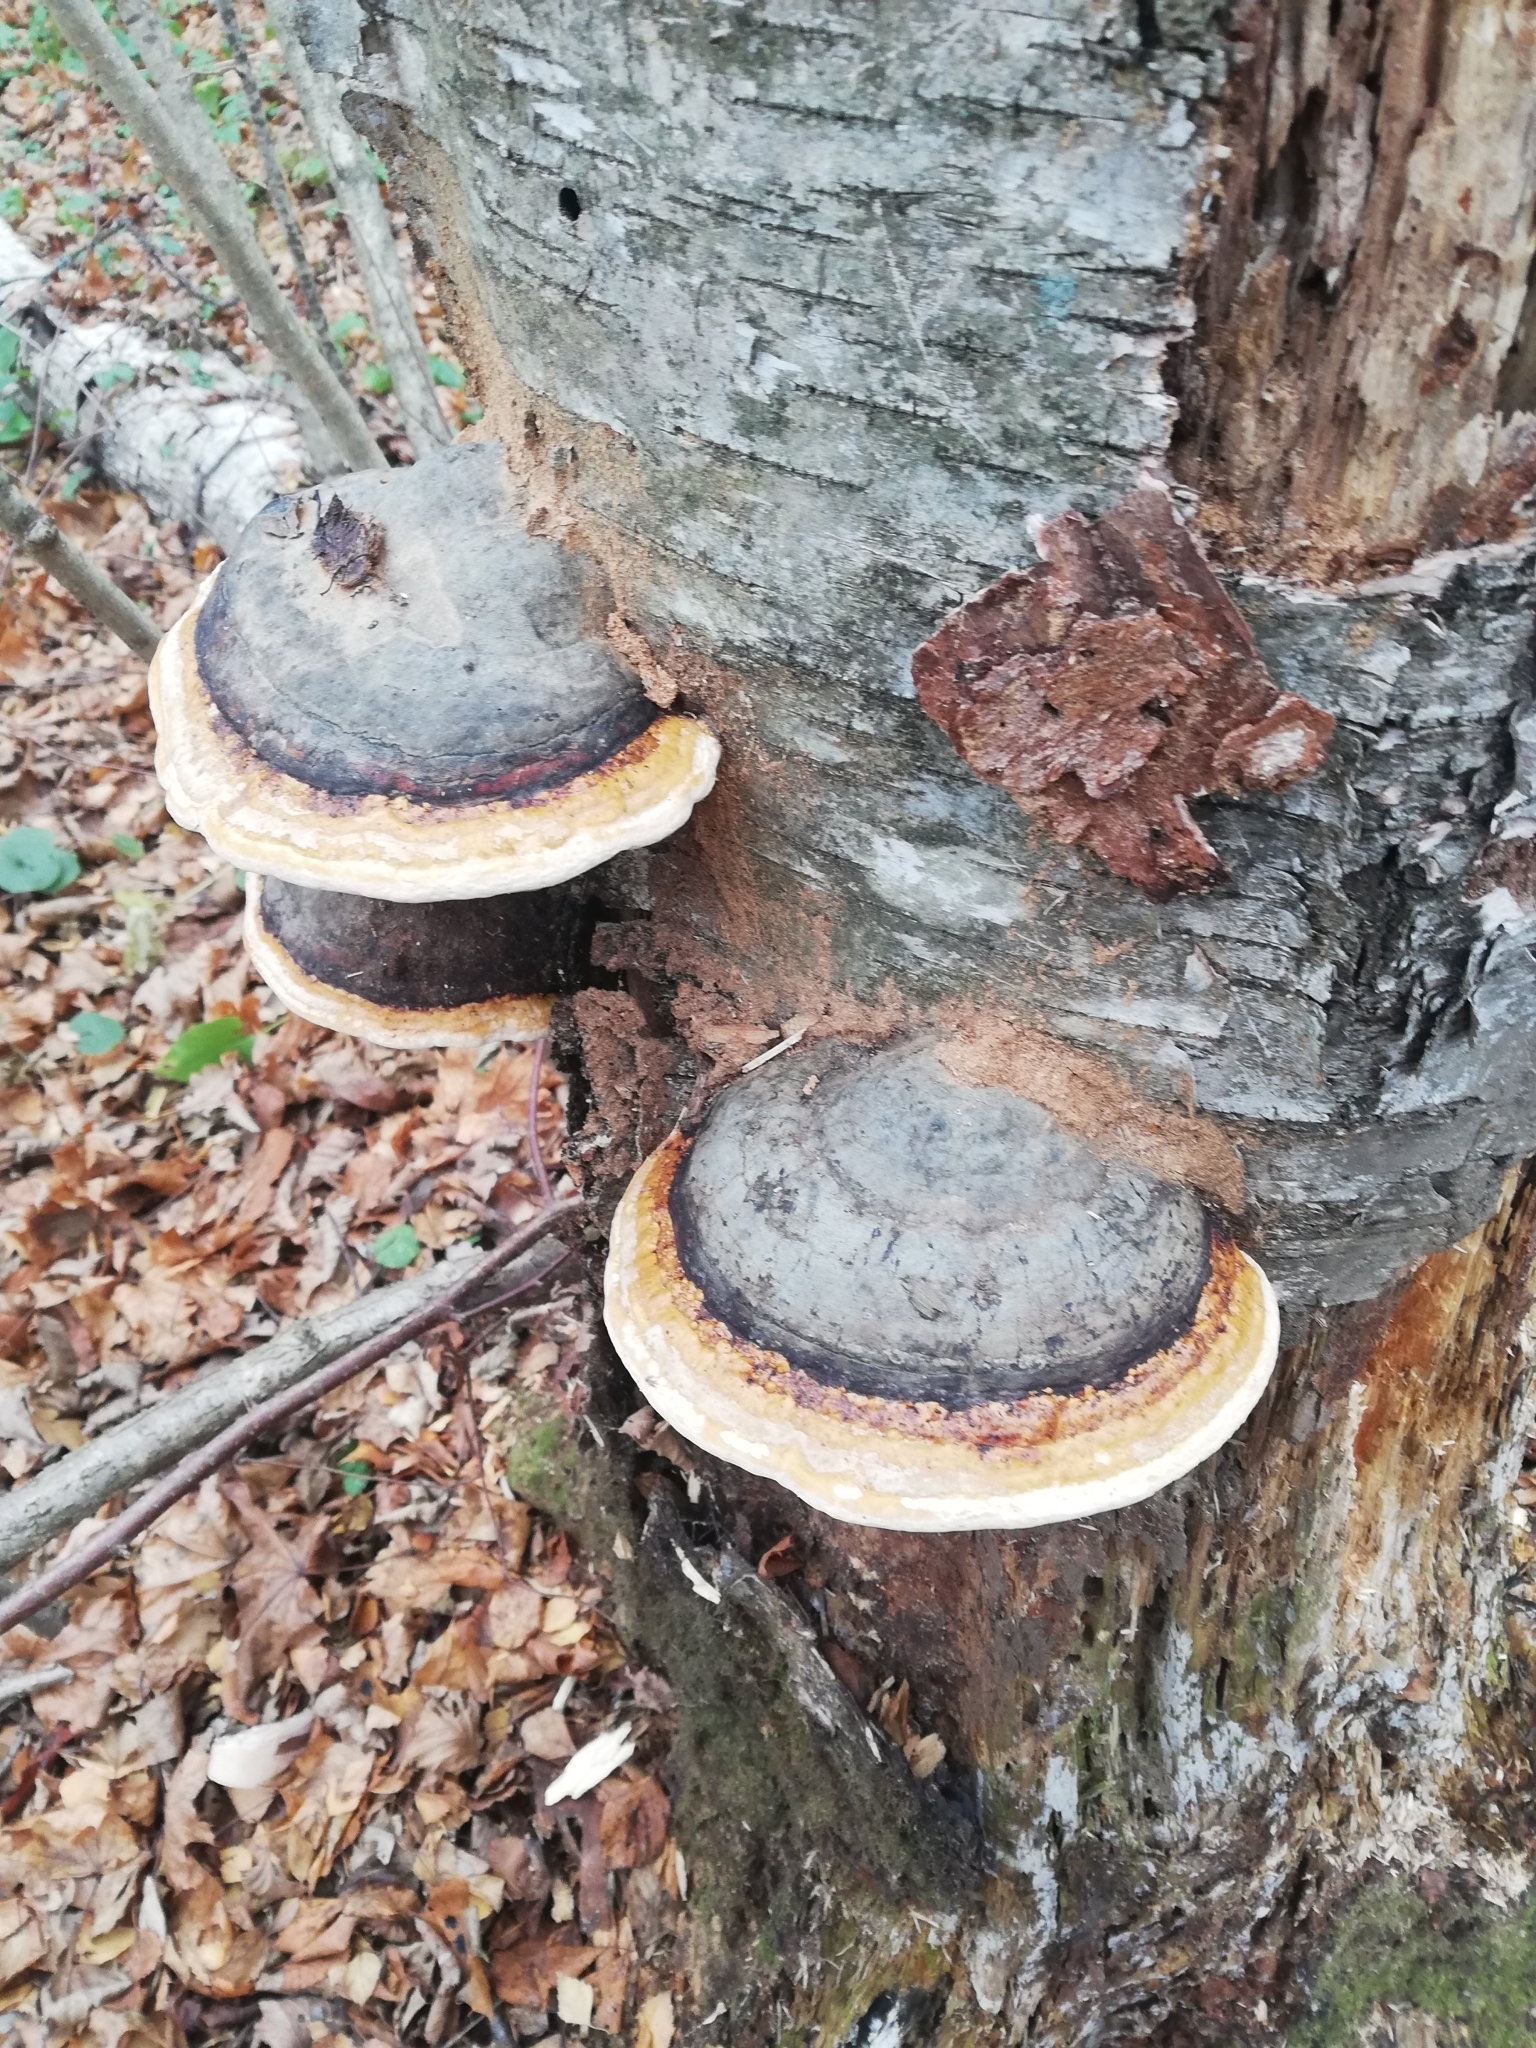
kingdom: Fungi
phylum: Basidiomycota
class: Agaricomycetes
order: Polyporales
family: Fomitopsidaceae
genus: Fomitopsis
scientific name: Fomitopsis pinicola
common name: Red-belted bracket
